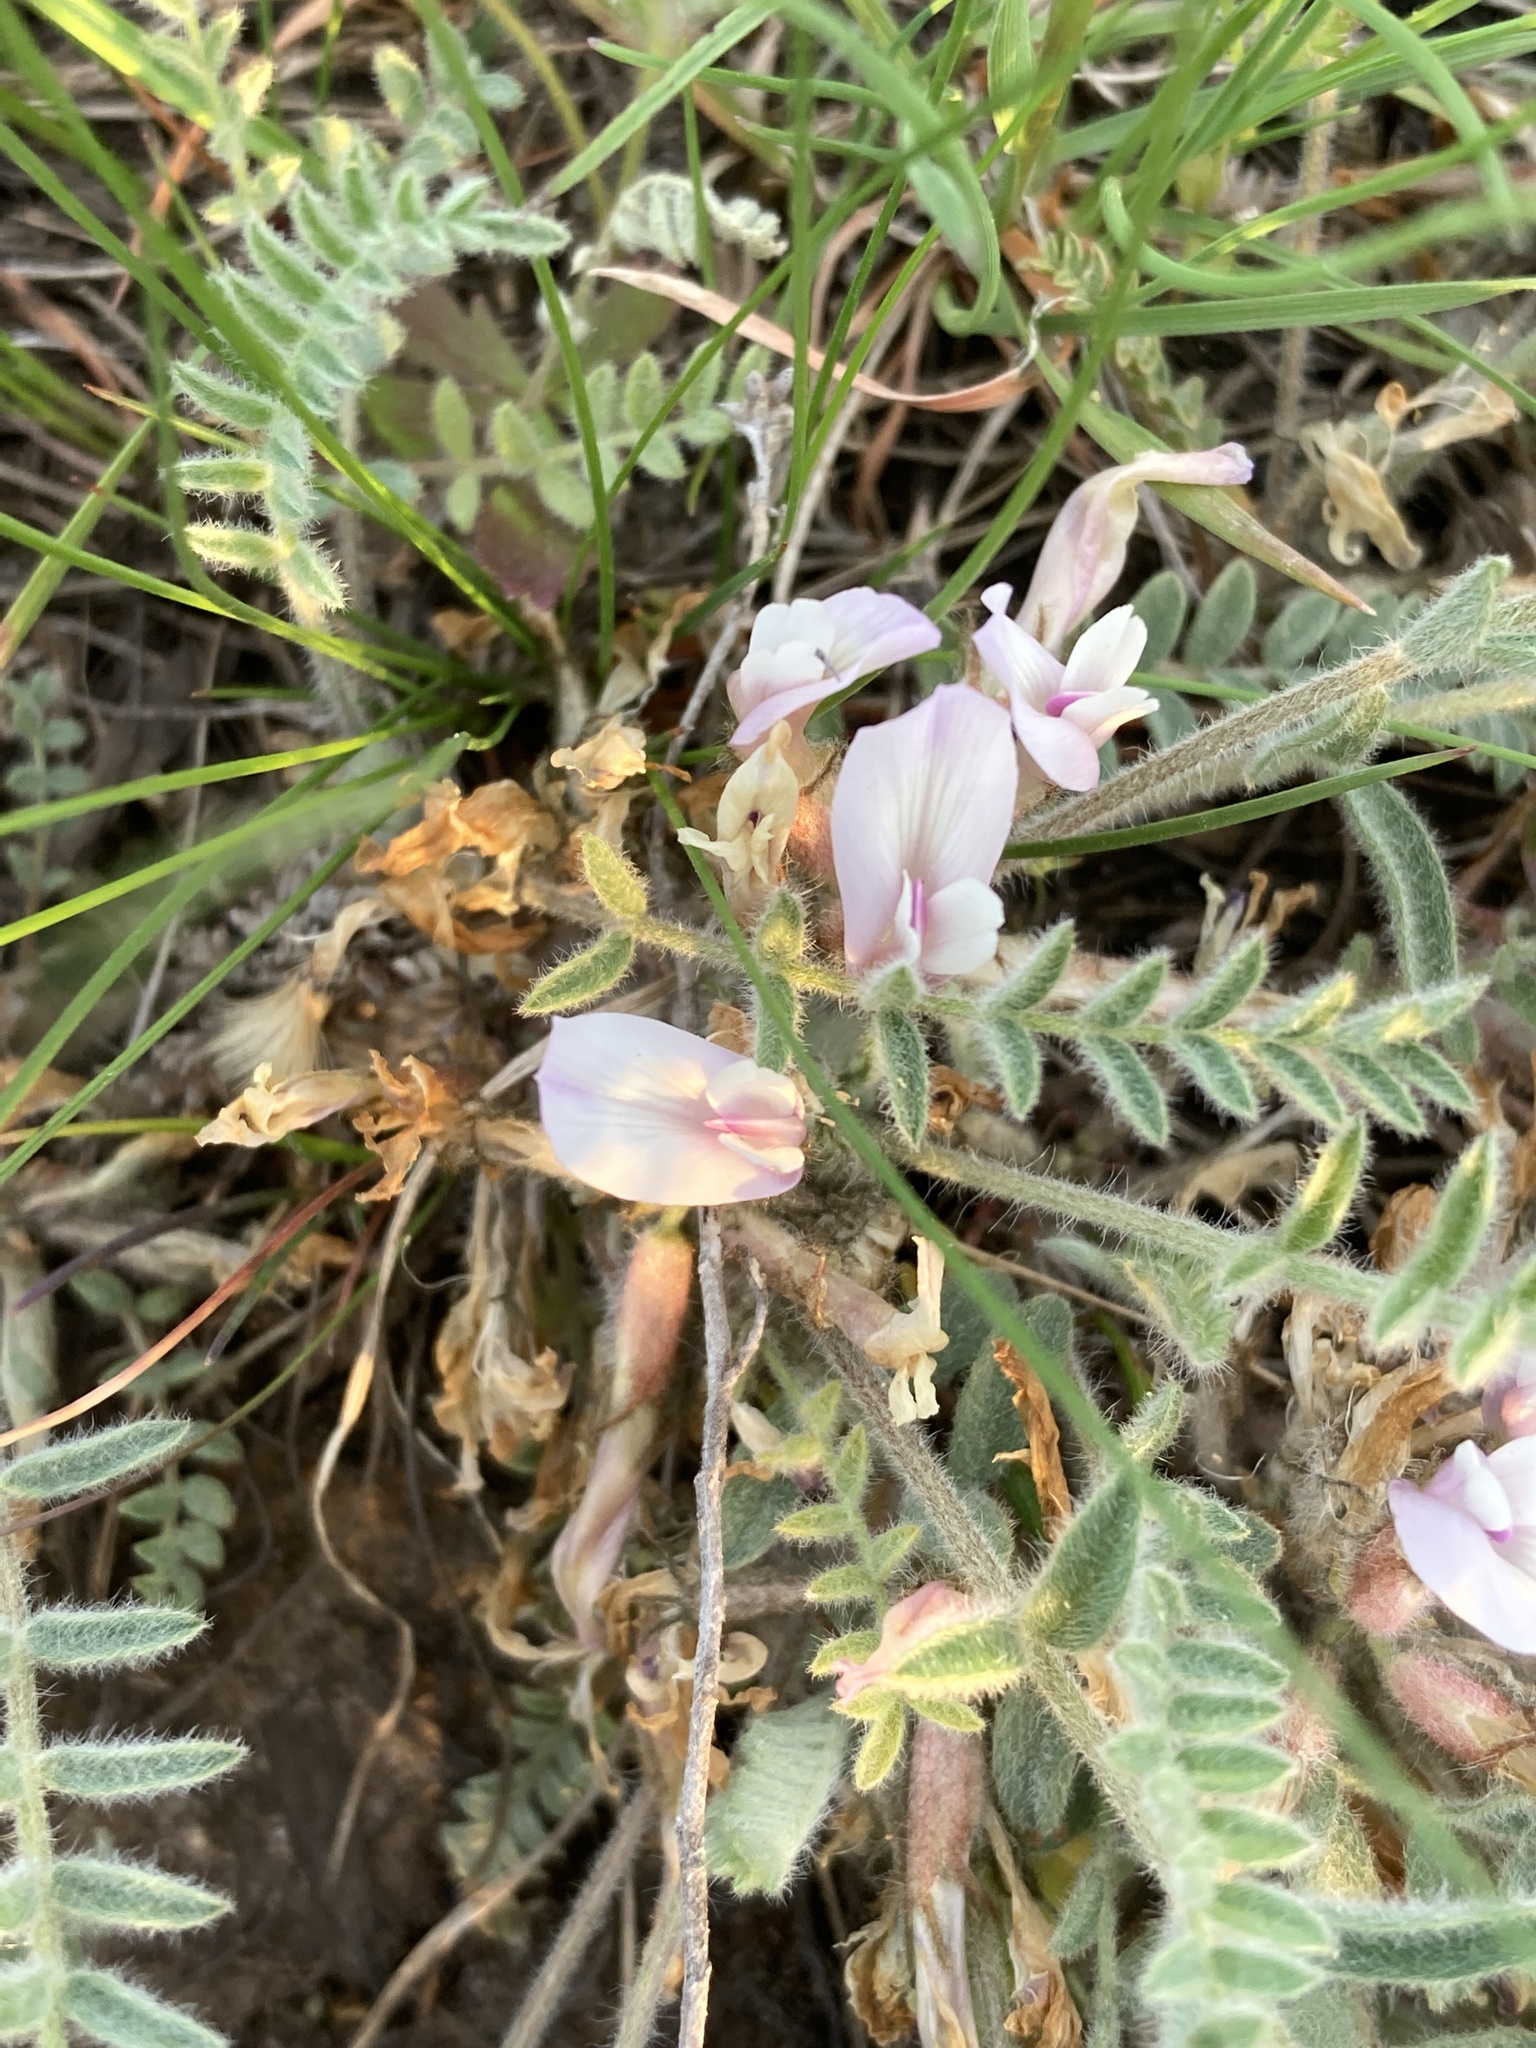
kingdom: Plantae
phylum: Tracheophyta
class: Magnoliopsida
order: Fabales
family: Fabaceae
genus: Astragalus
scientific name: Astragalus testiculatus
